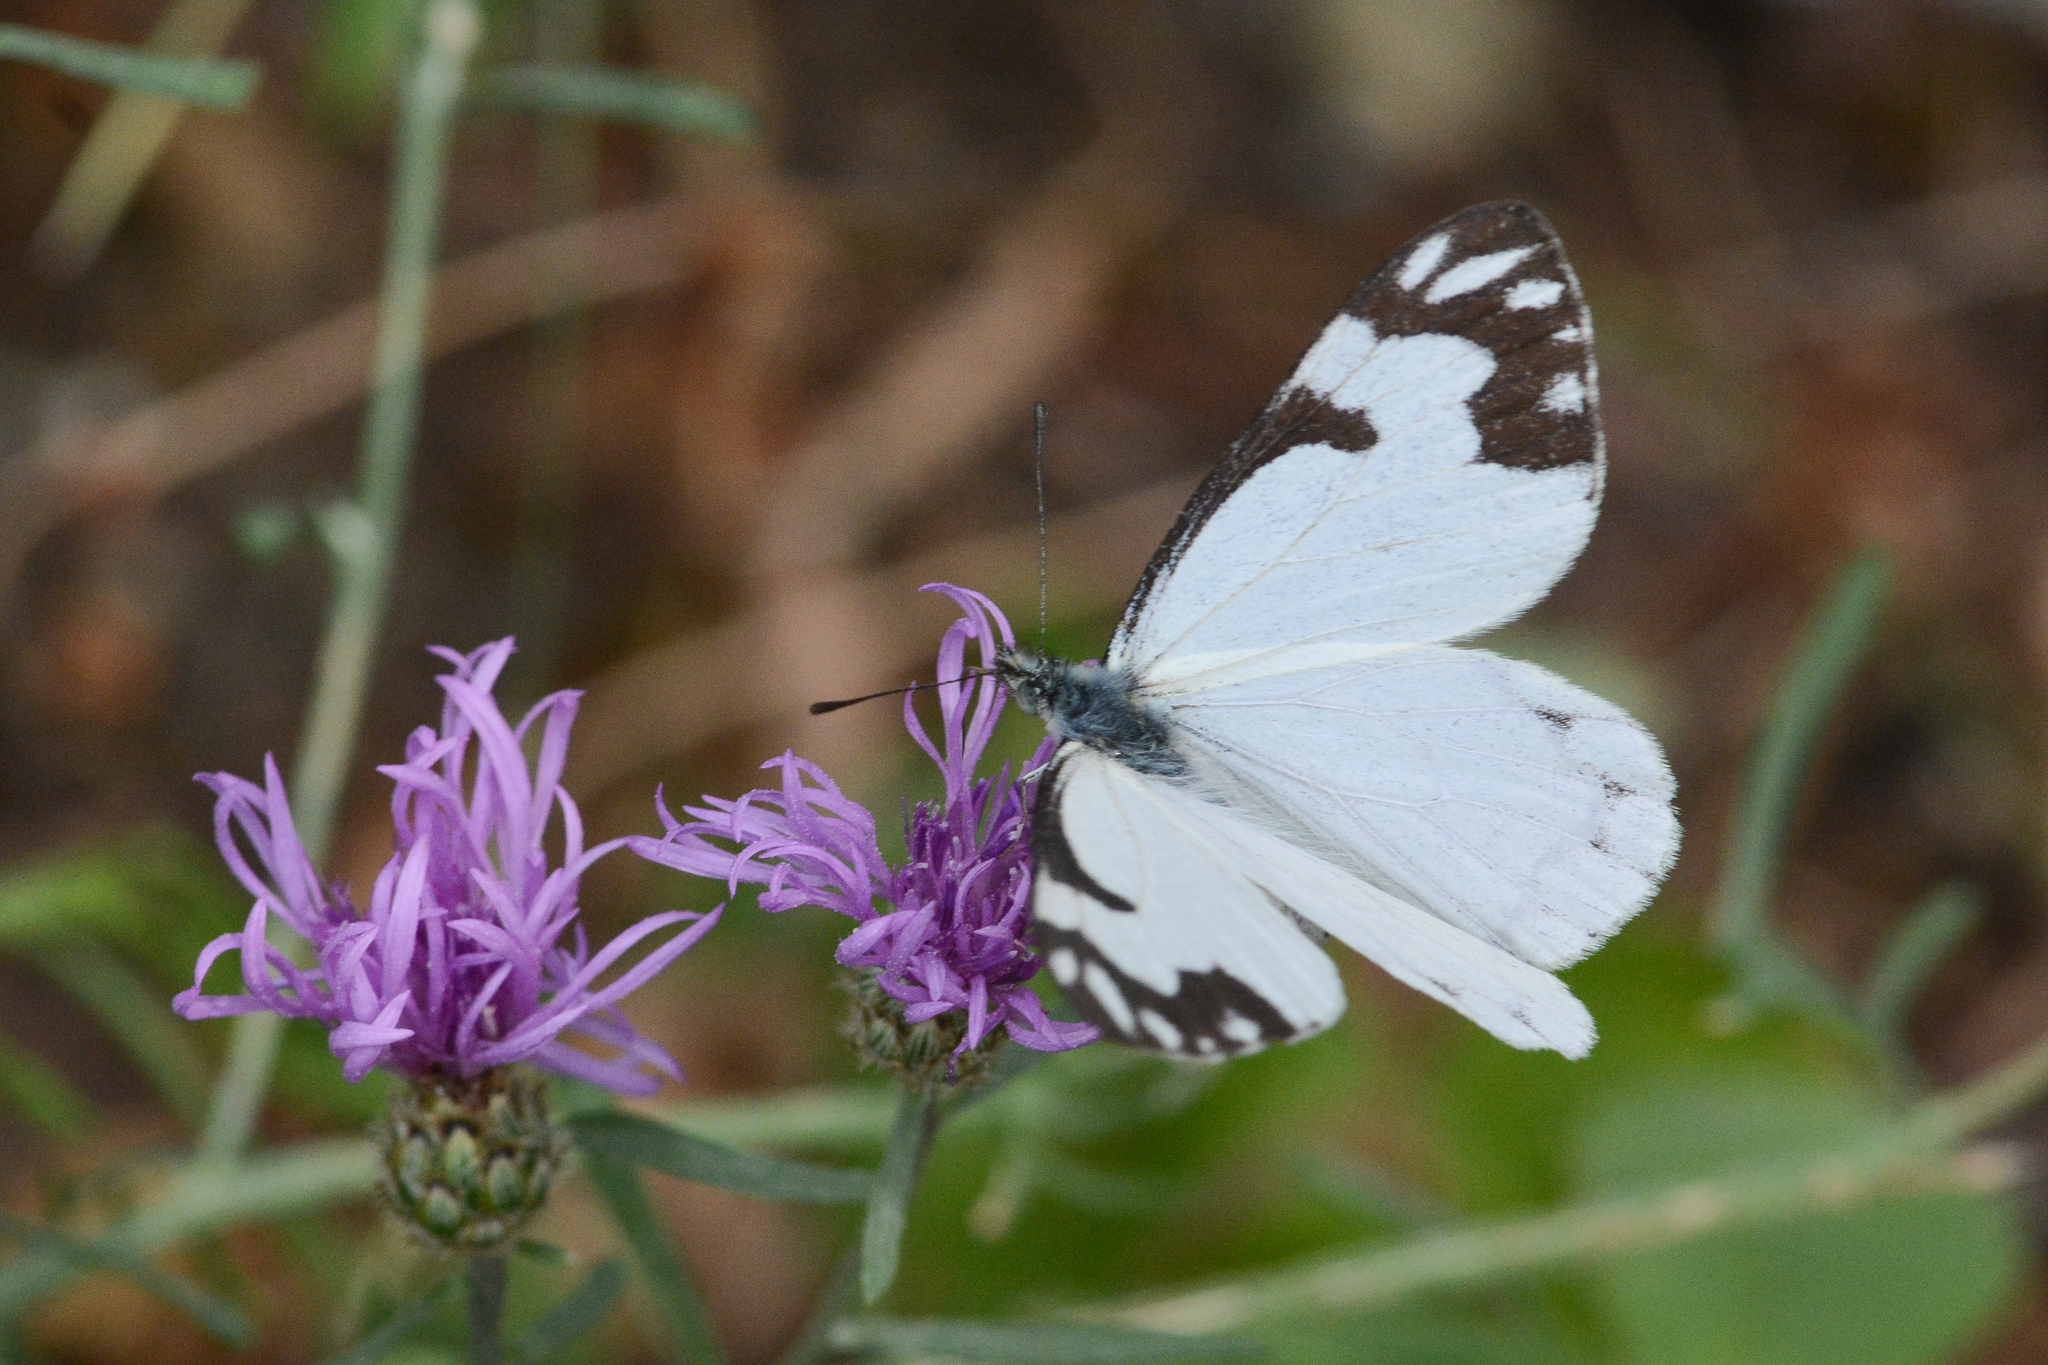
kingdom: Animalia
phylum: Arthropoda
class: Insecta
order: Lepidoptera
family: Pieridae
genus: Neophasia
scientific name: Neophasia menapia
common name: Pine white
